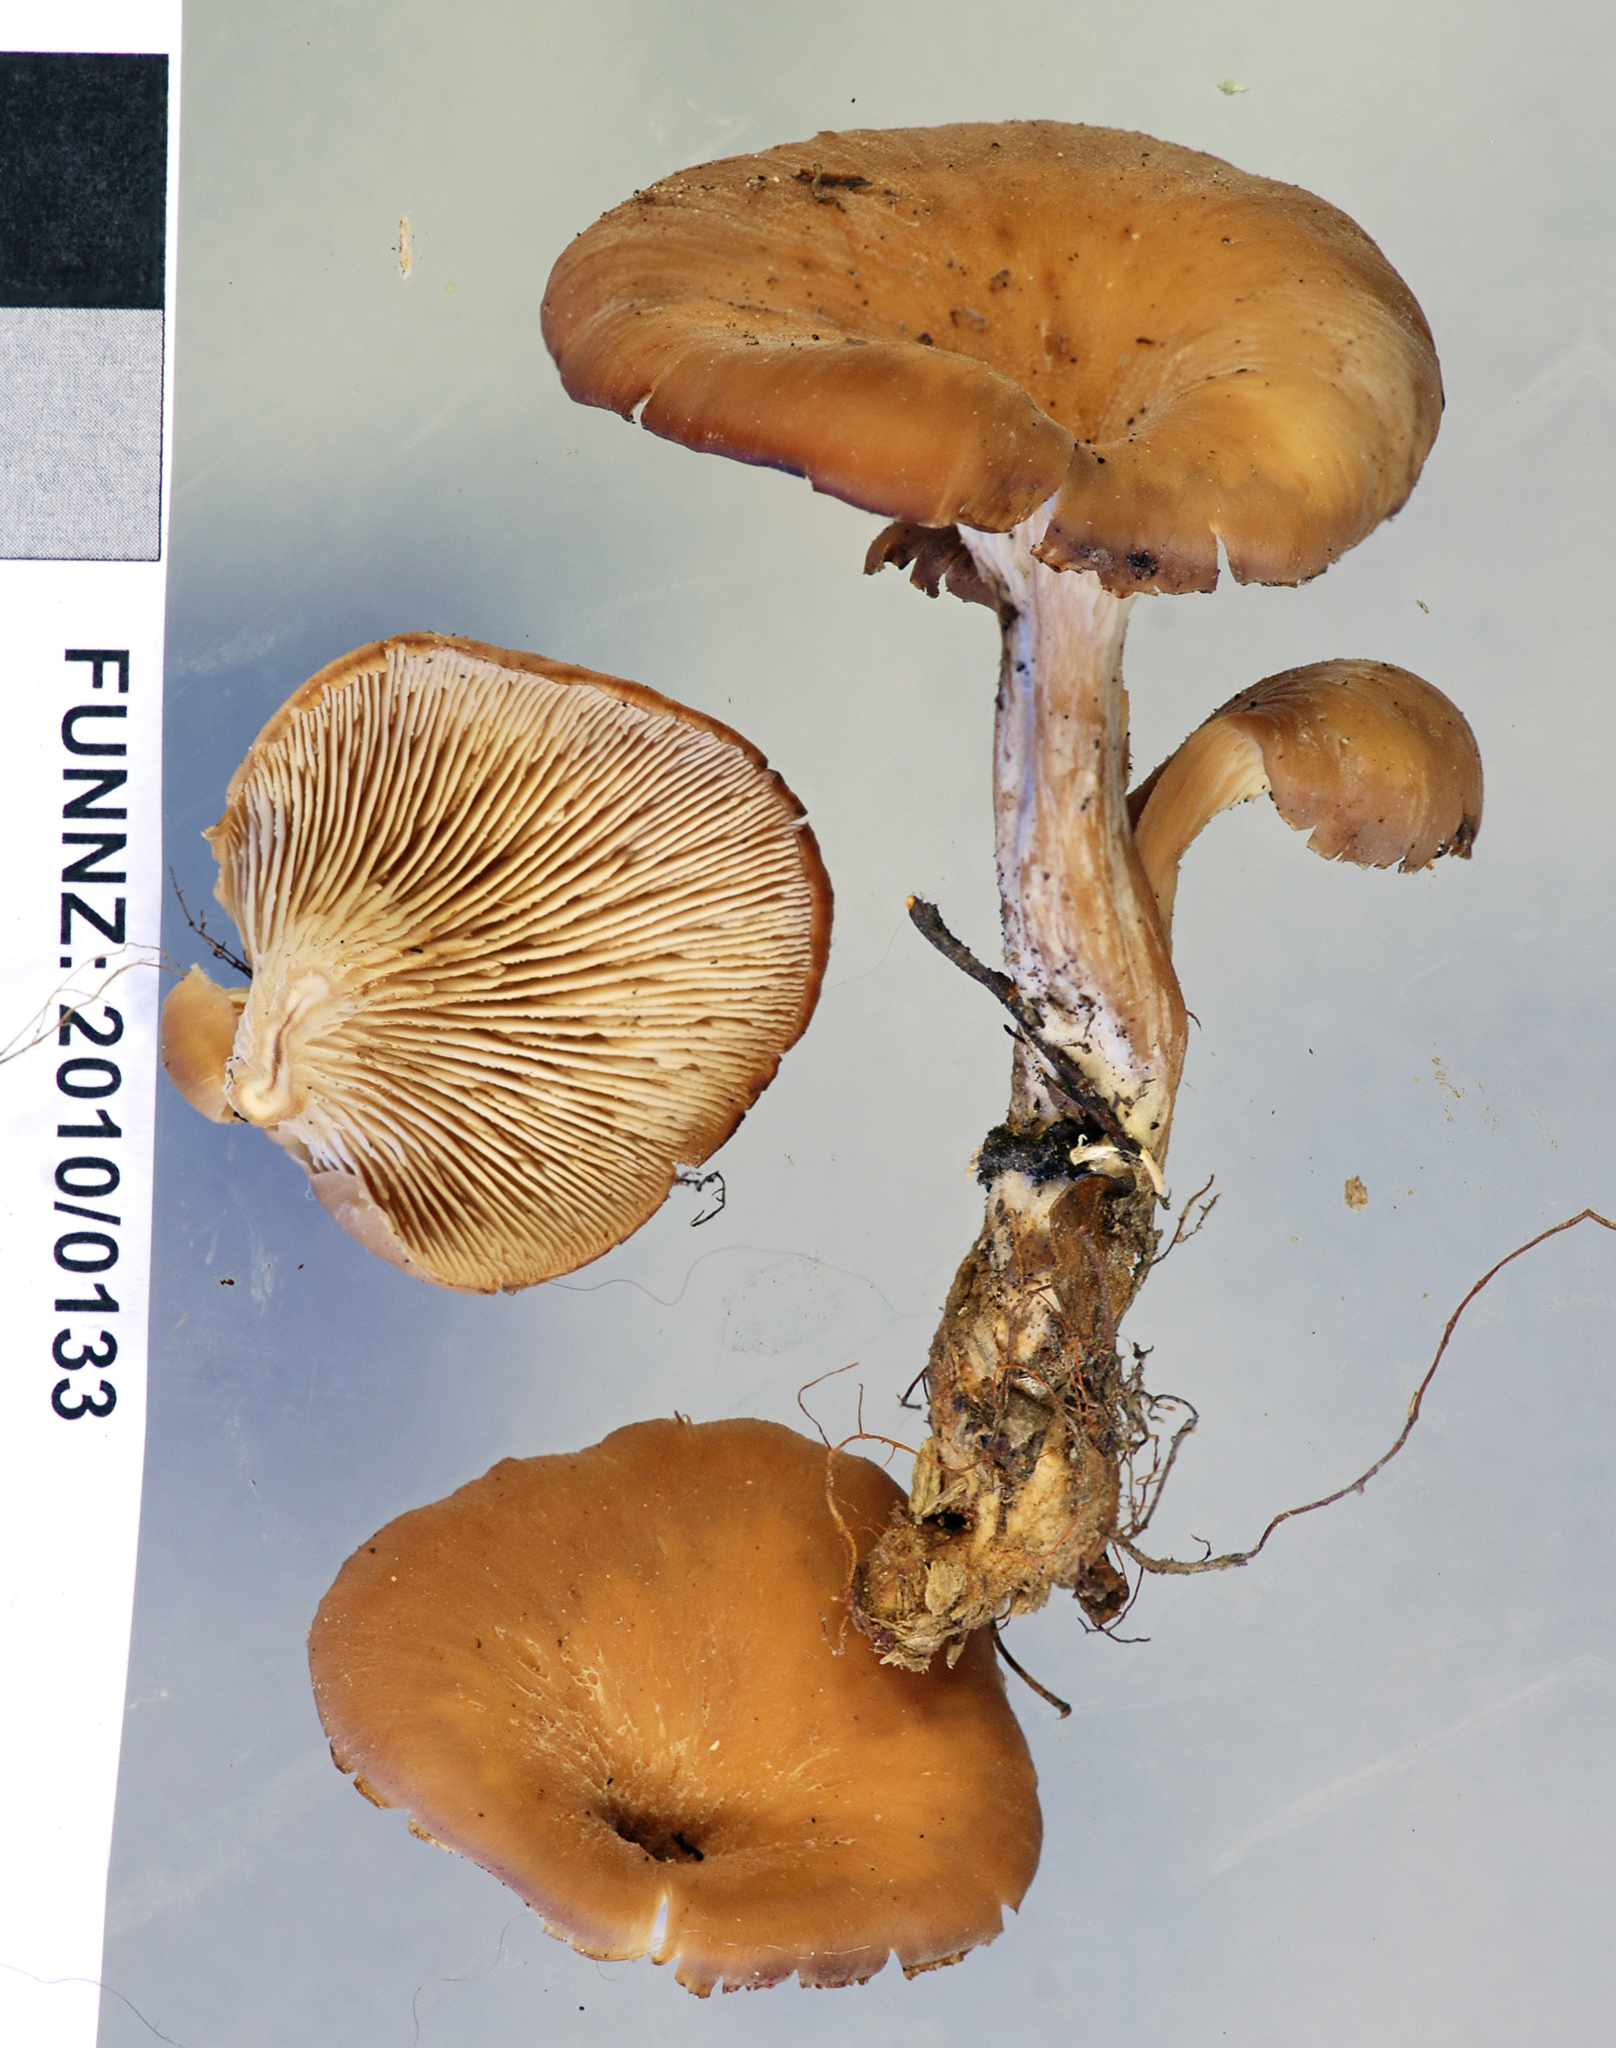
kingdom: Fungi
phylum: Basidiomycota
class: Agaricomycetes
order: Russulales
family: Auriscalpiaceae
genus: Lentinellus
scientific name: Lentinellus crawfordiae
